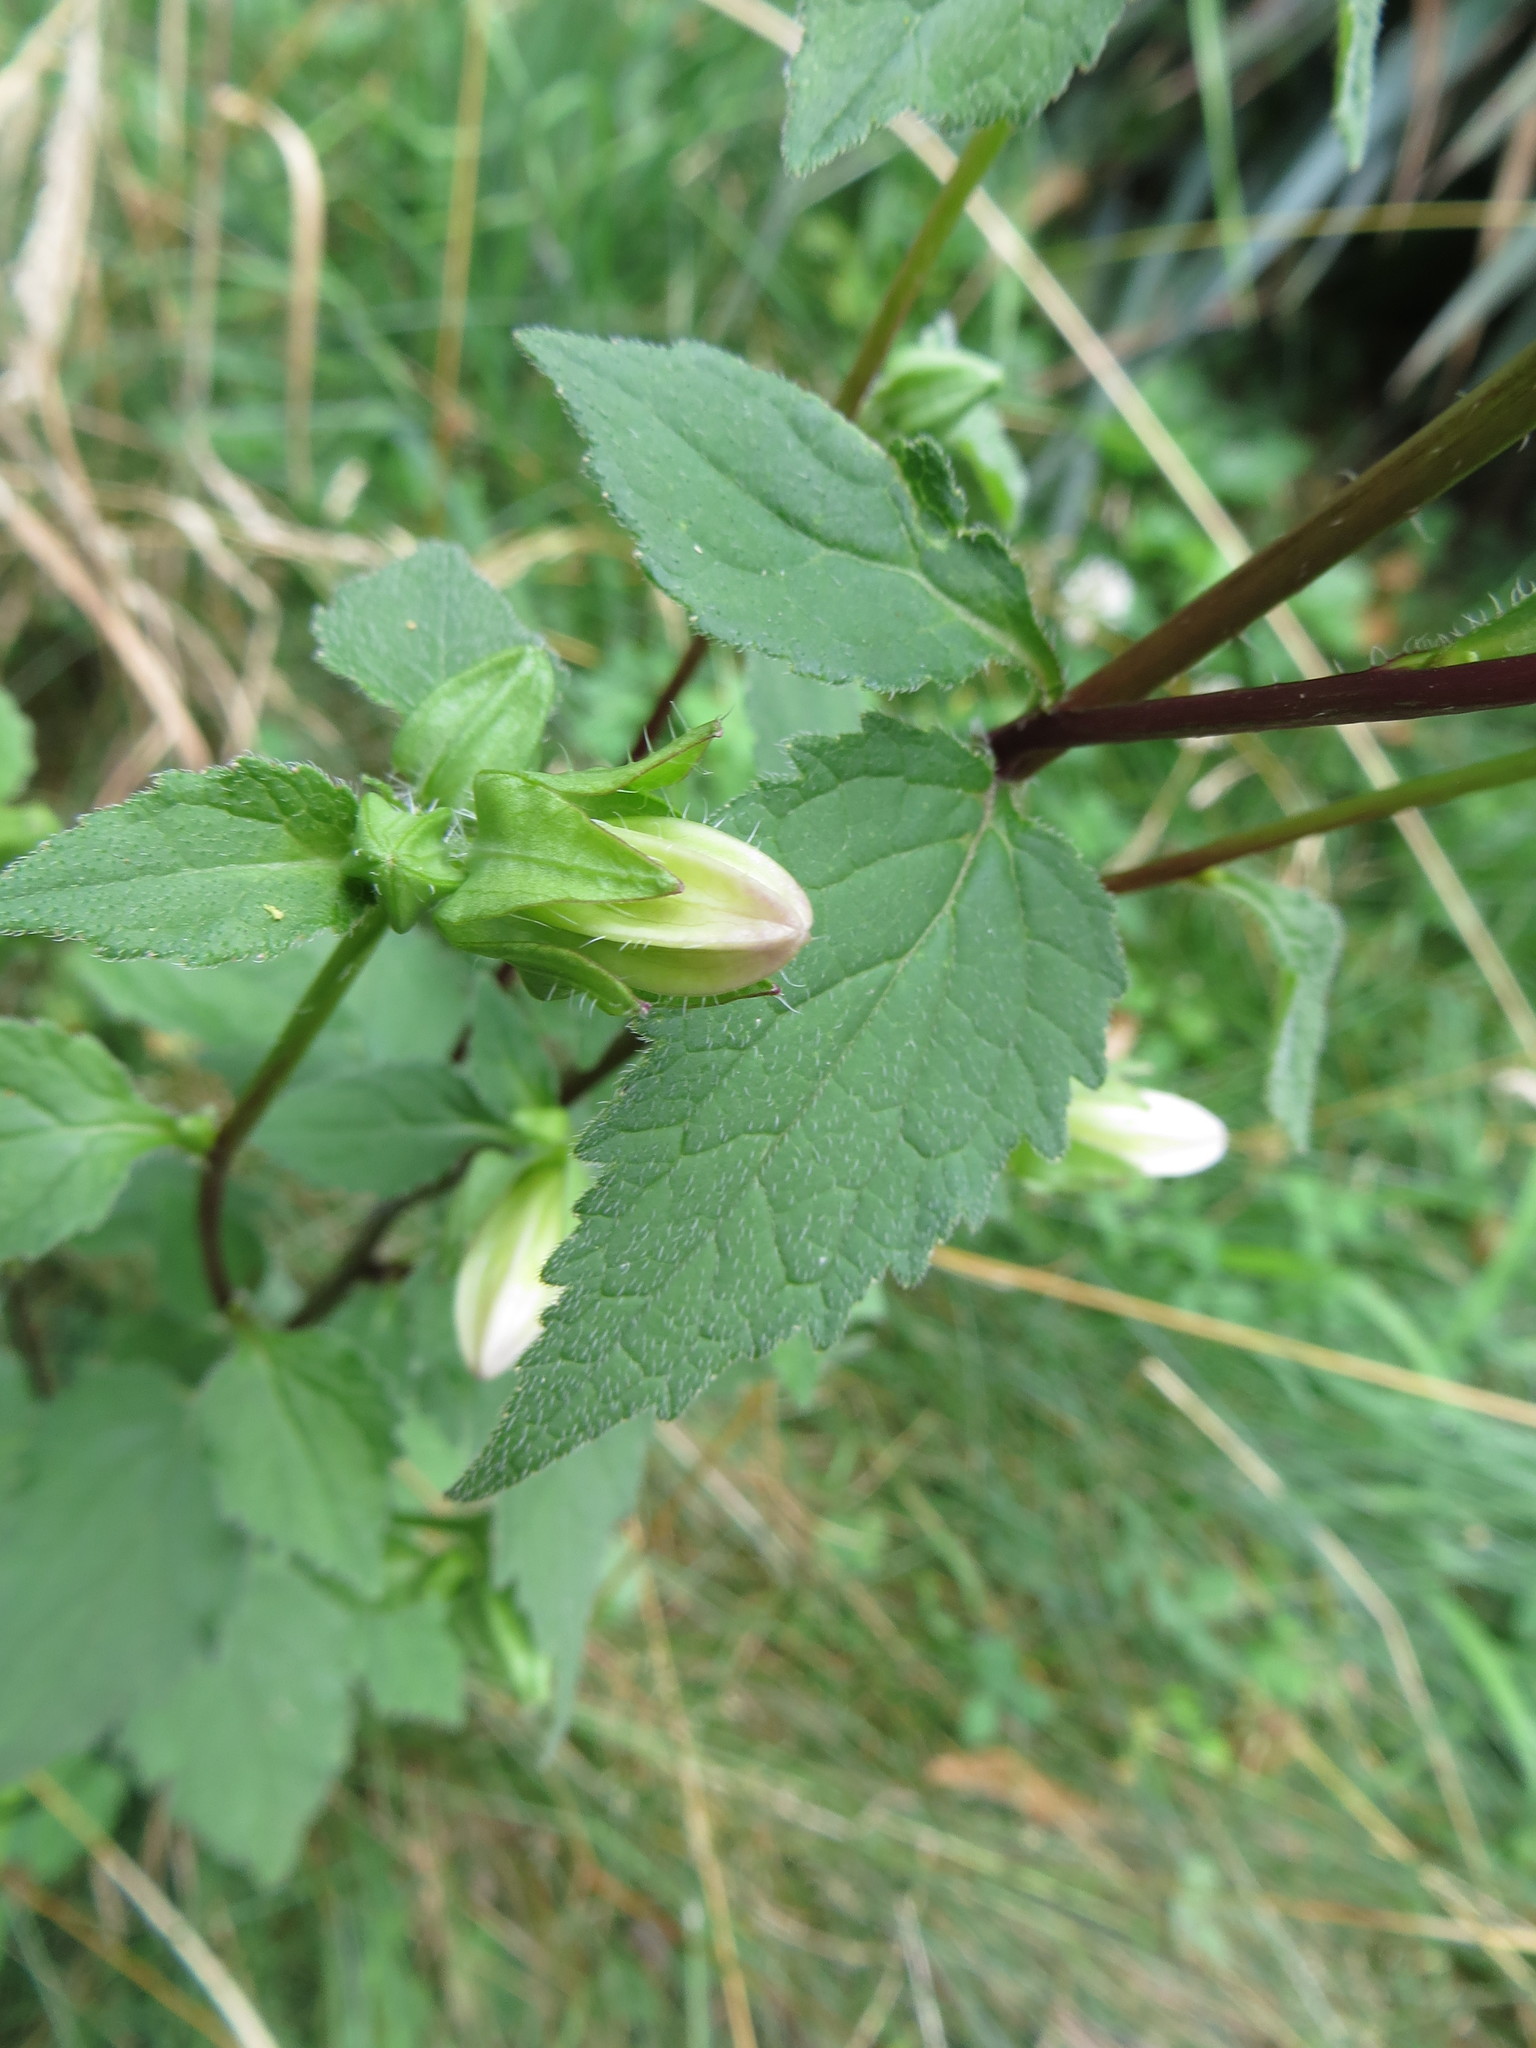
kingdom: Plantae
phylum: Tracheophyta
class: Magnoliopsida
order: Asterales
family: Campanulaceae
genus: Campanula
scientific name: Campanula trachelium
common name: Nettle-leaved bellflower
